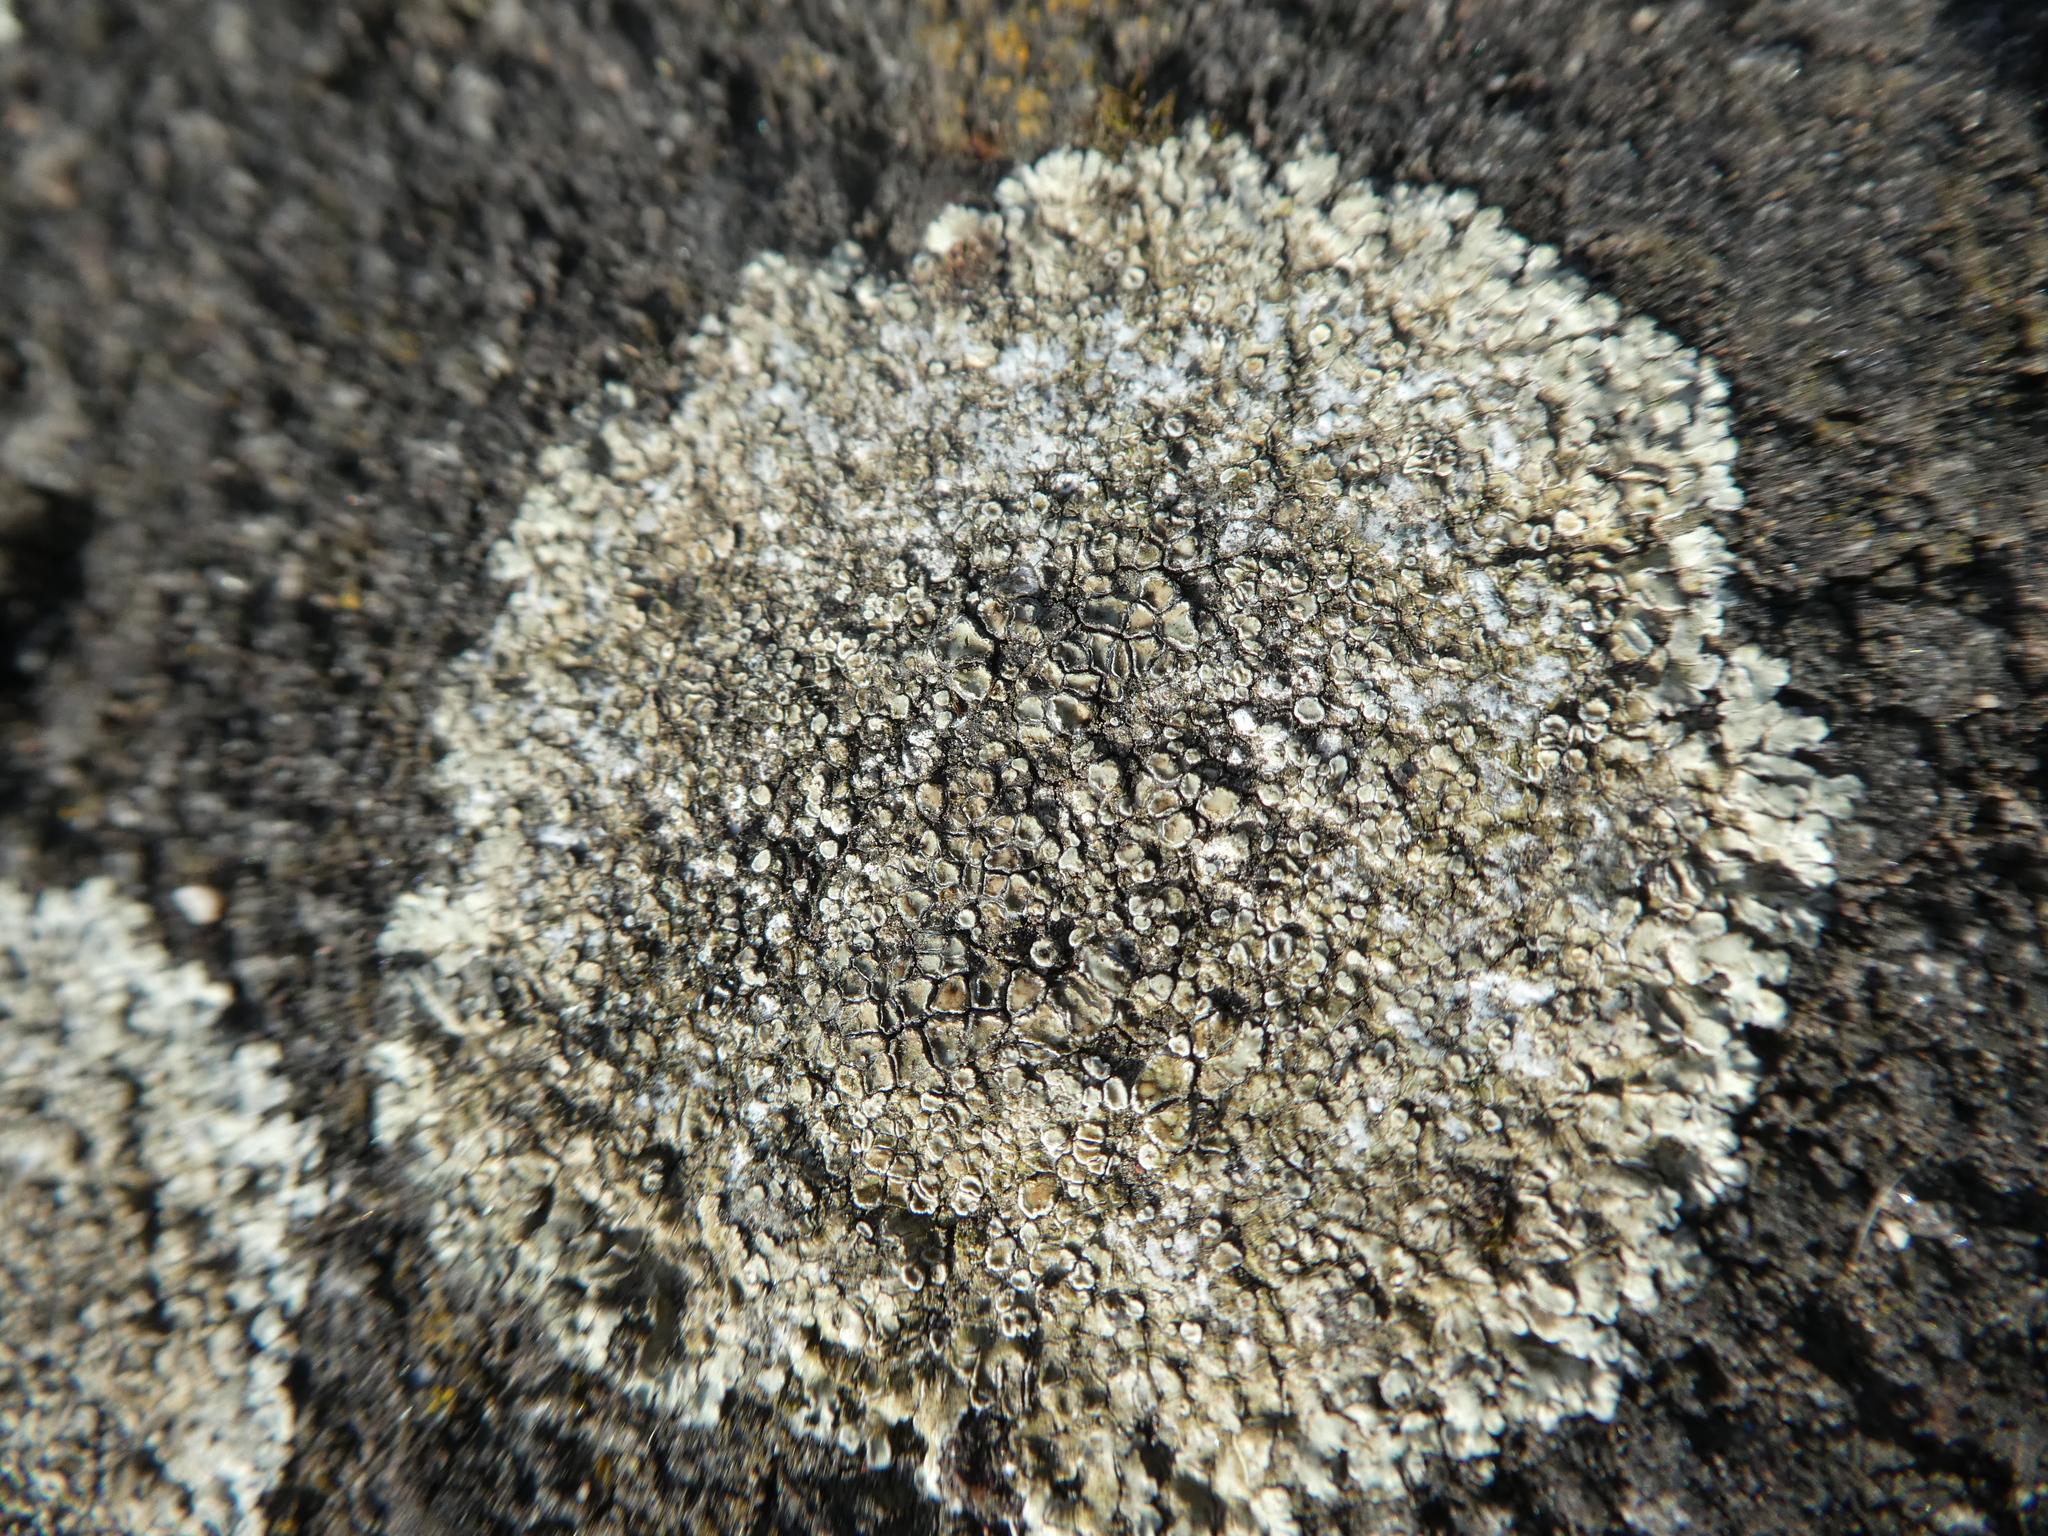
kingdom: Fungi
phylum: Ascomycota
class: Lecanoromycetes
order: Lecanorales
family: Lecanoraceae
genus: Protoparmeliopsis
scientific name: Protoparmeliopsis muralis
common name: Stonewall rim lichen
